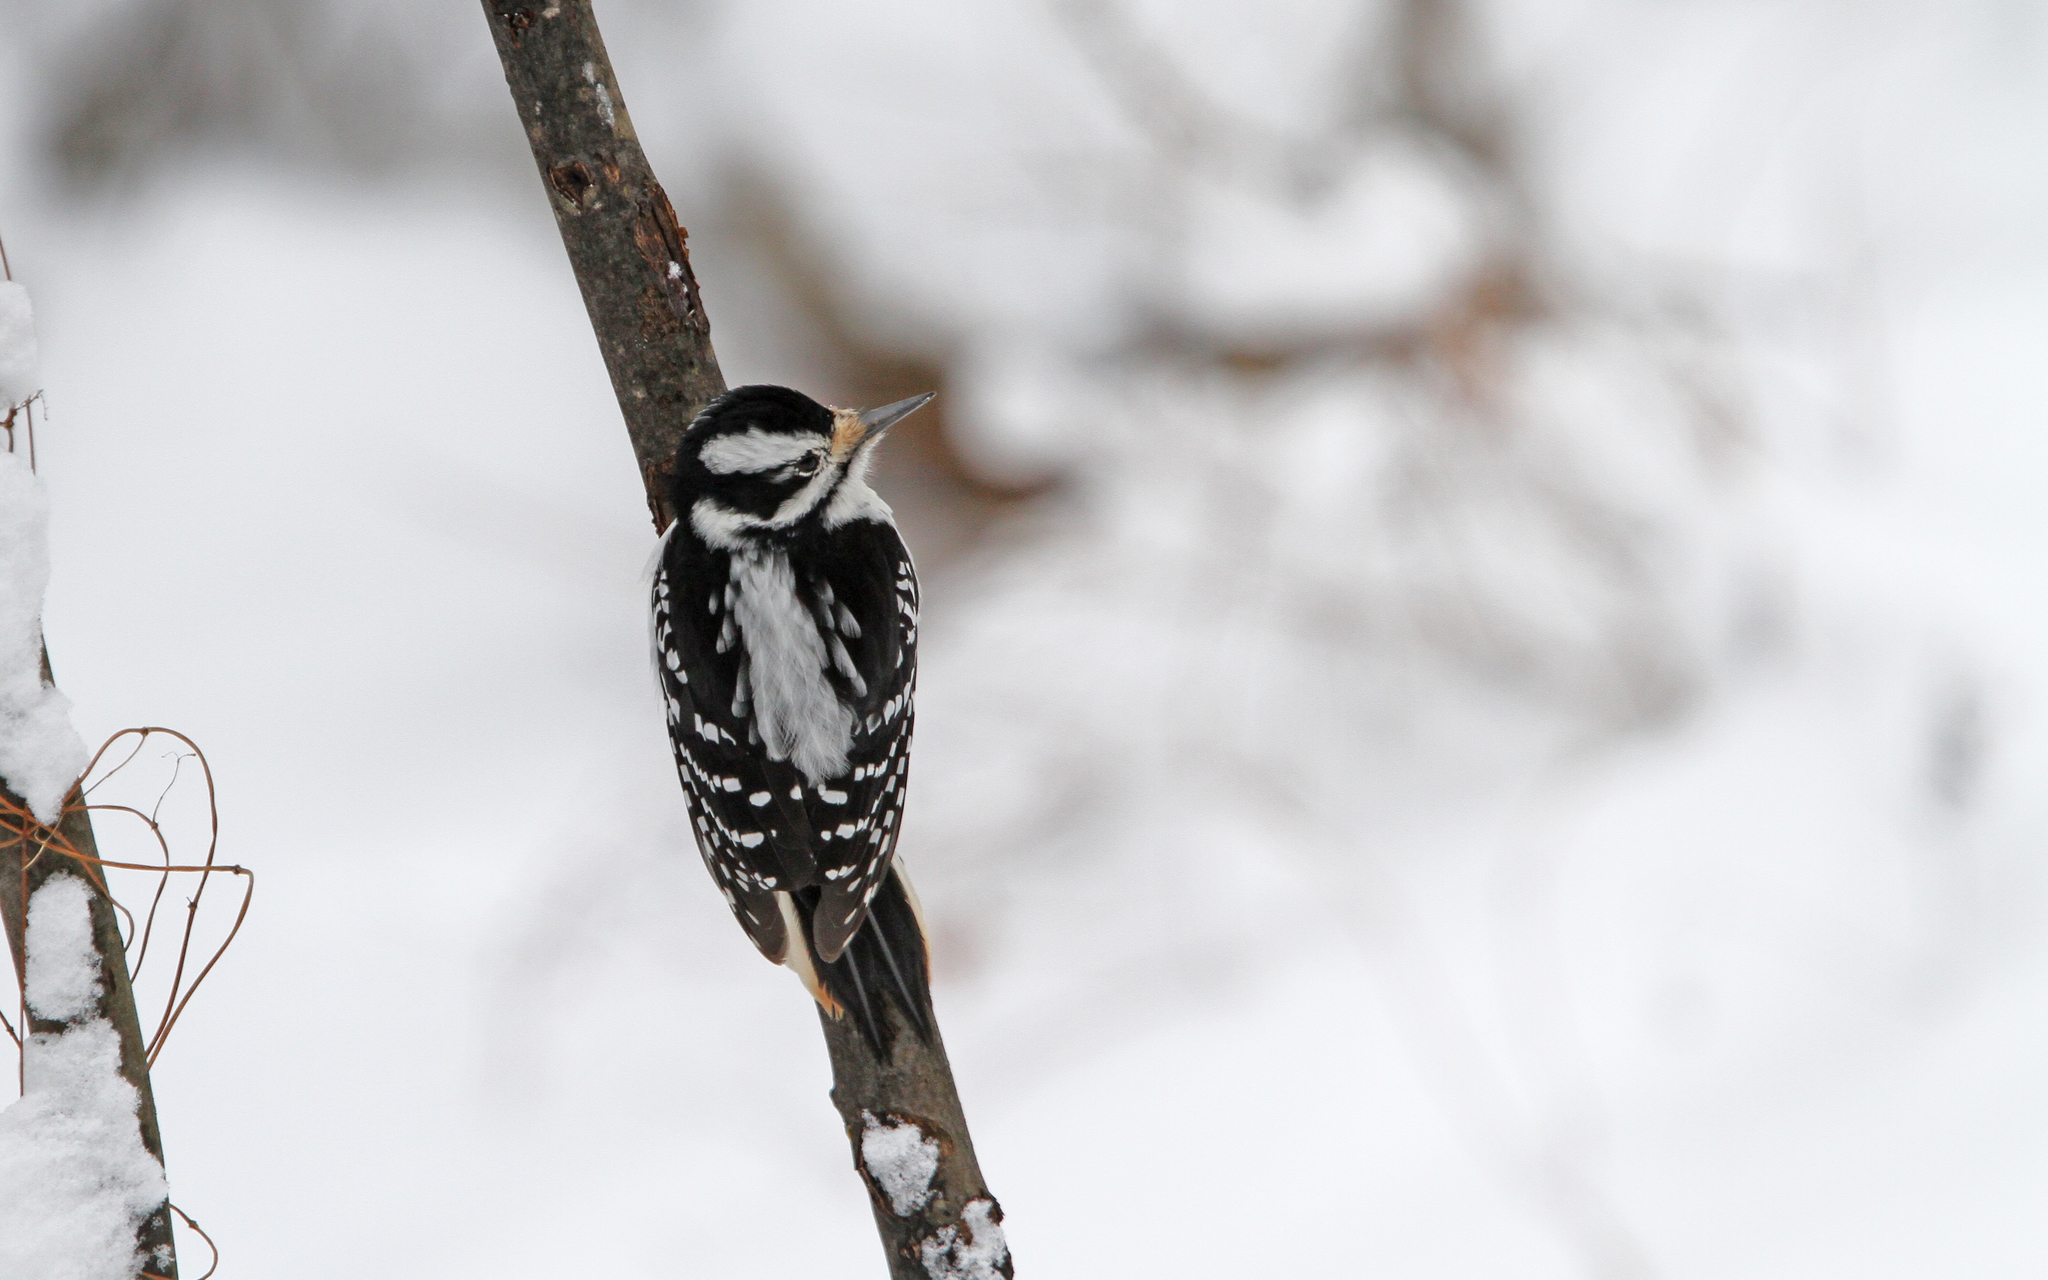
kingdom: Animalia
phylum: Chordata
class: Aves
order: Piciformes
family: Picidae
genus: Leuconotopicus
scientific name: Leuconotopicus villosus
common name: Hairy woodpecker
